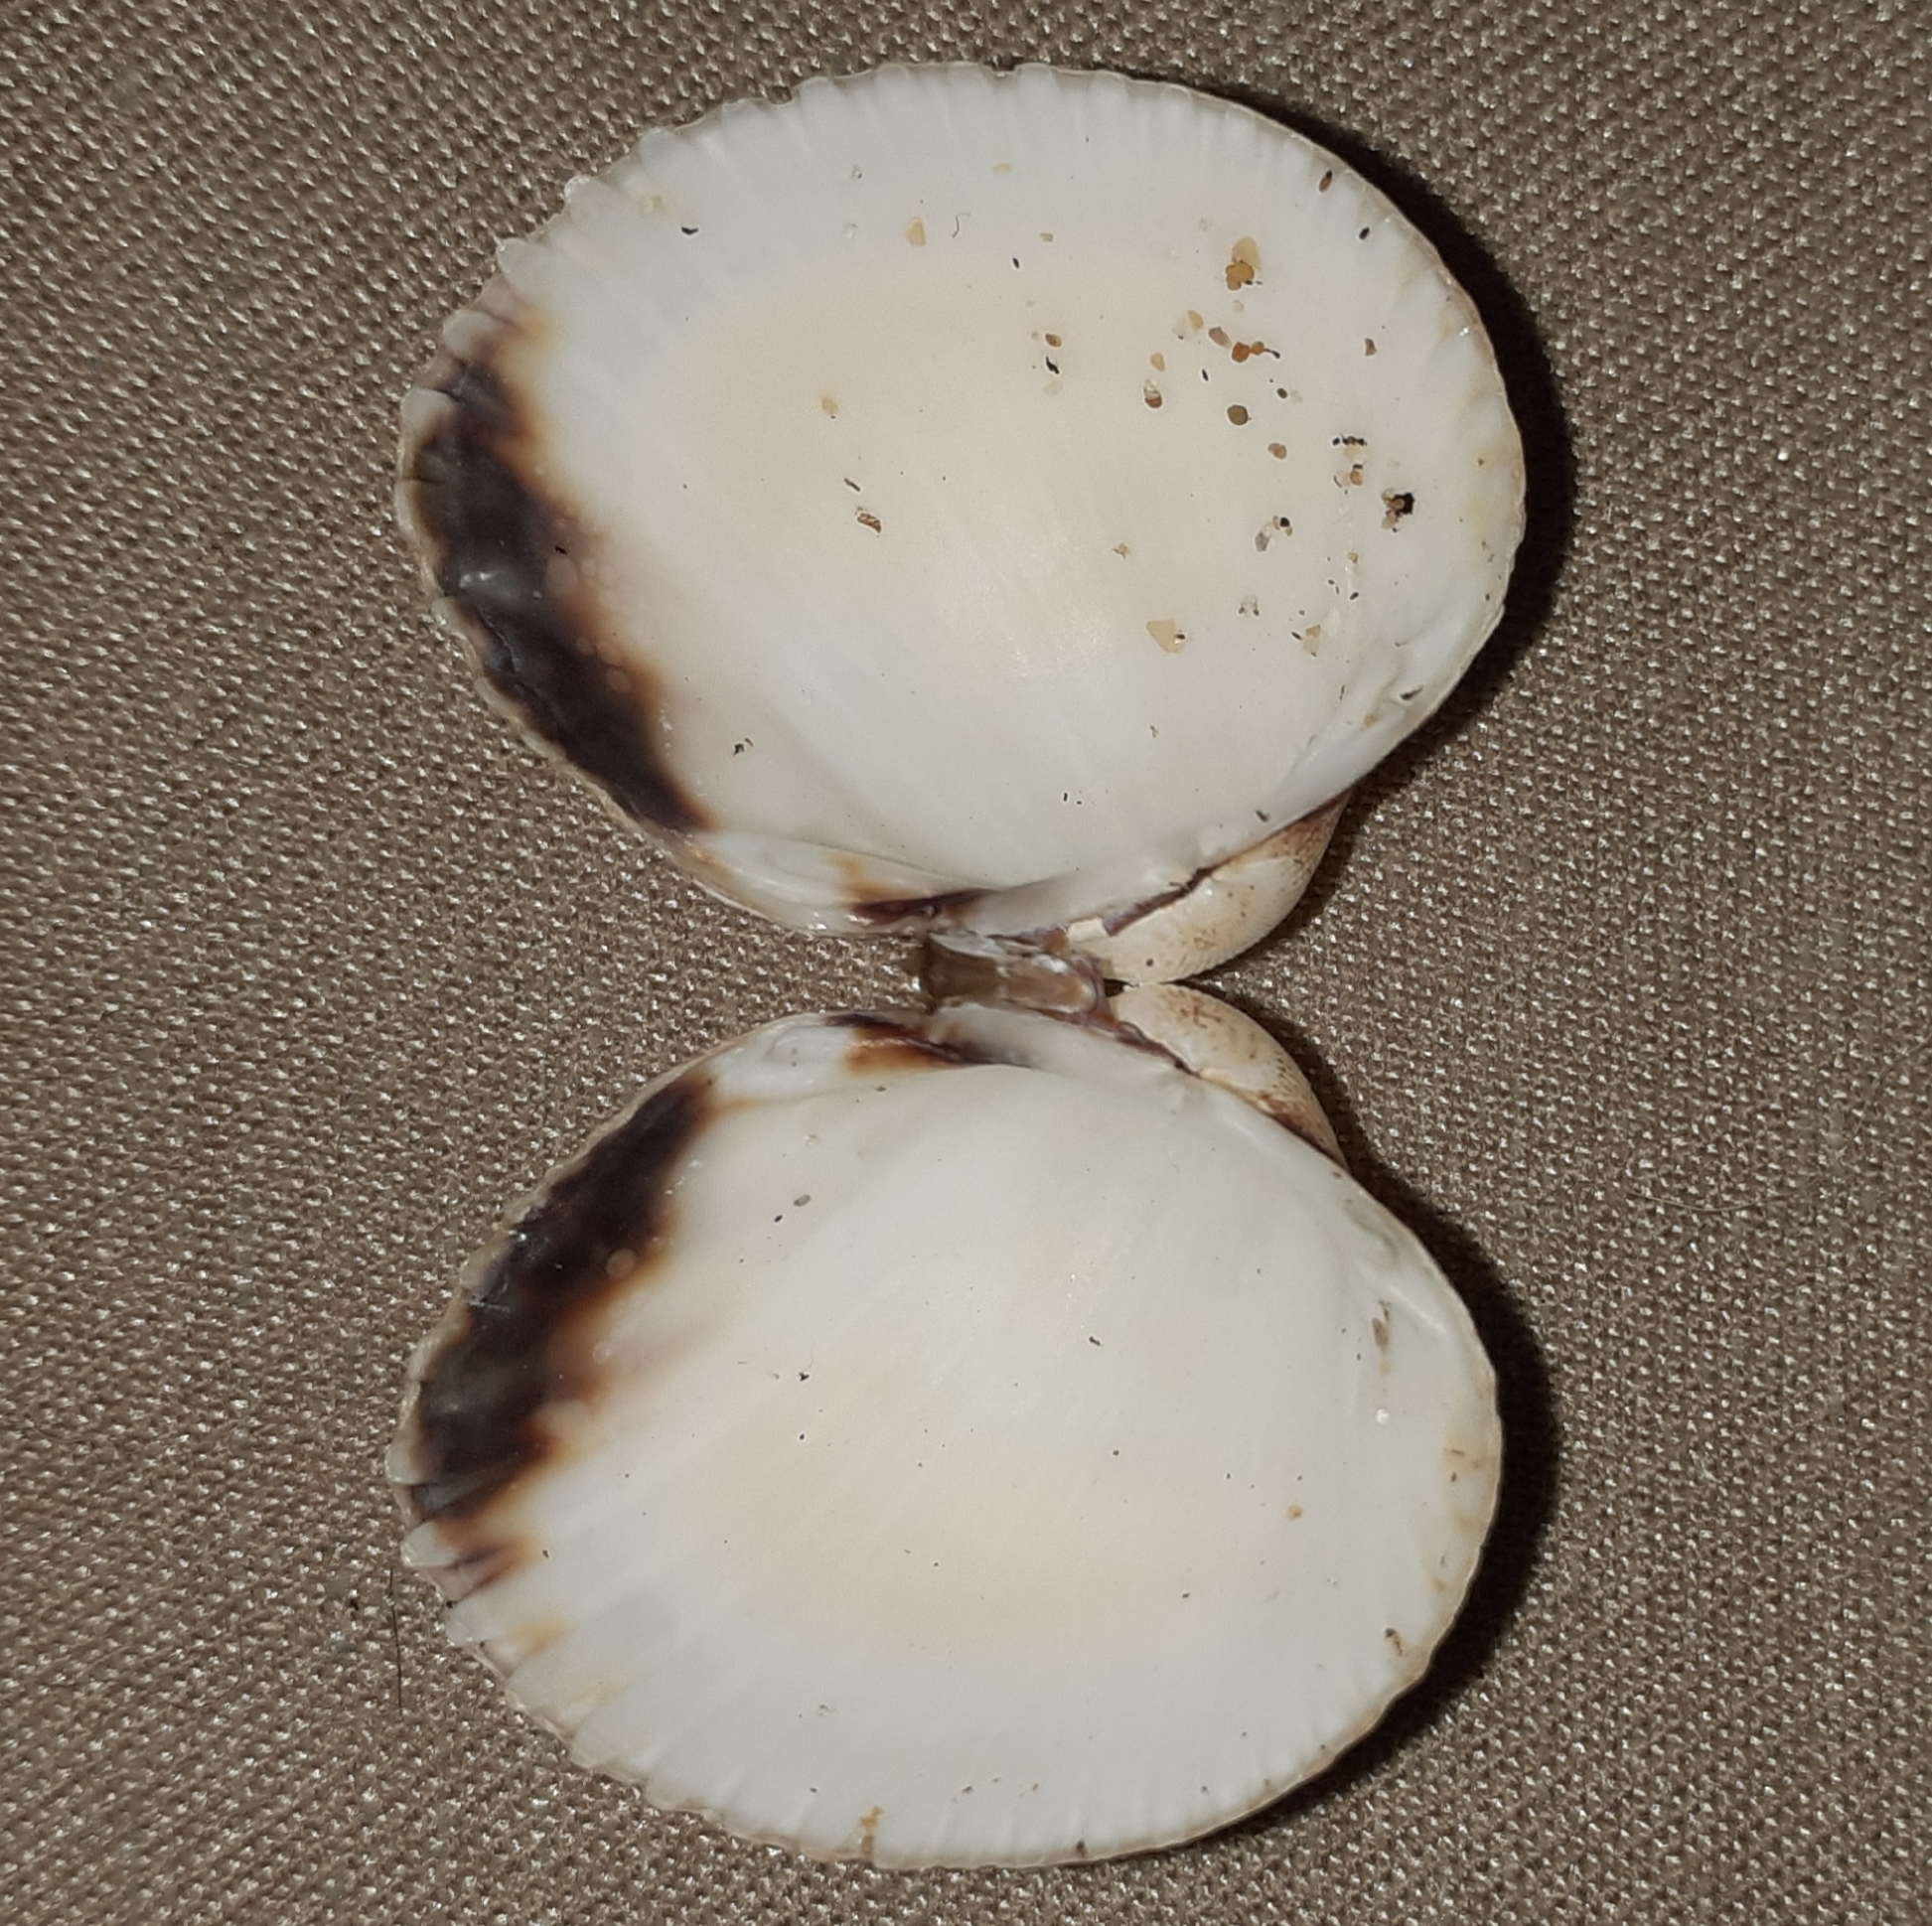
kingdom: Animalia
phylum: Mollusca
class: Bivalvia
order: Cardiida
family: Cardiidae
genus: Cerastoderma
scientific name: Cerastoderma edule
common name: Common cockle
